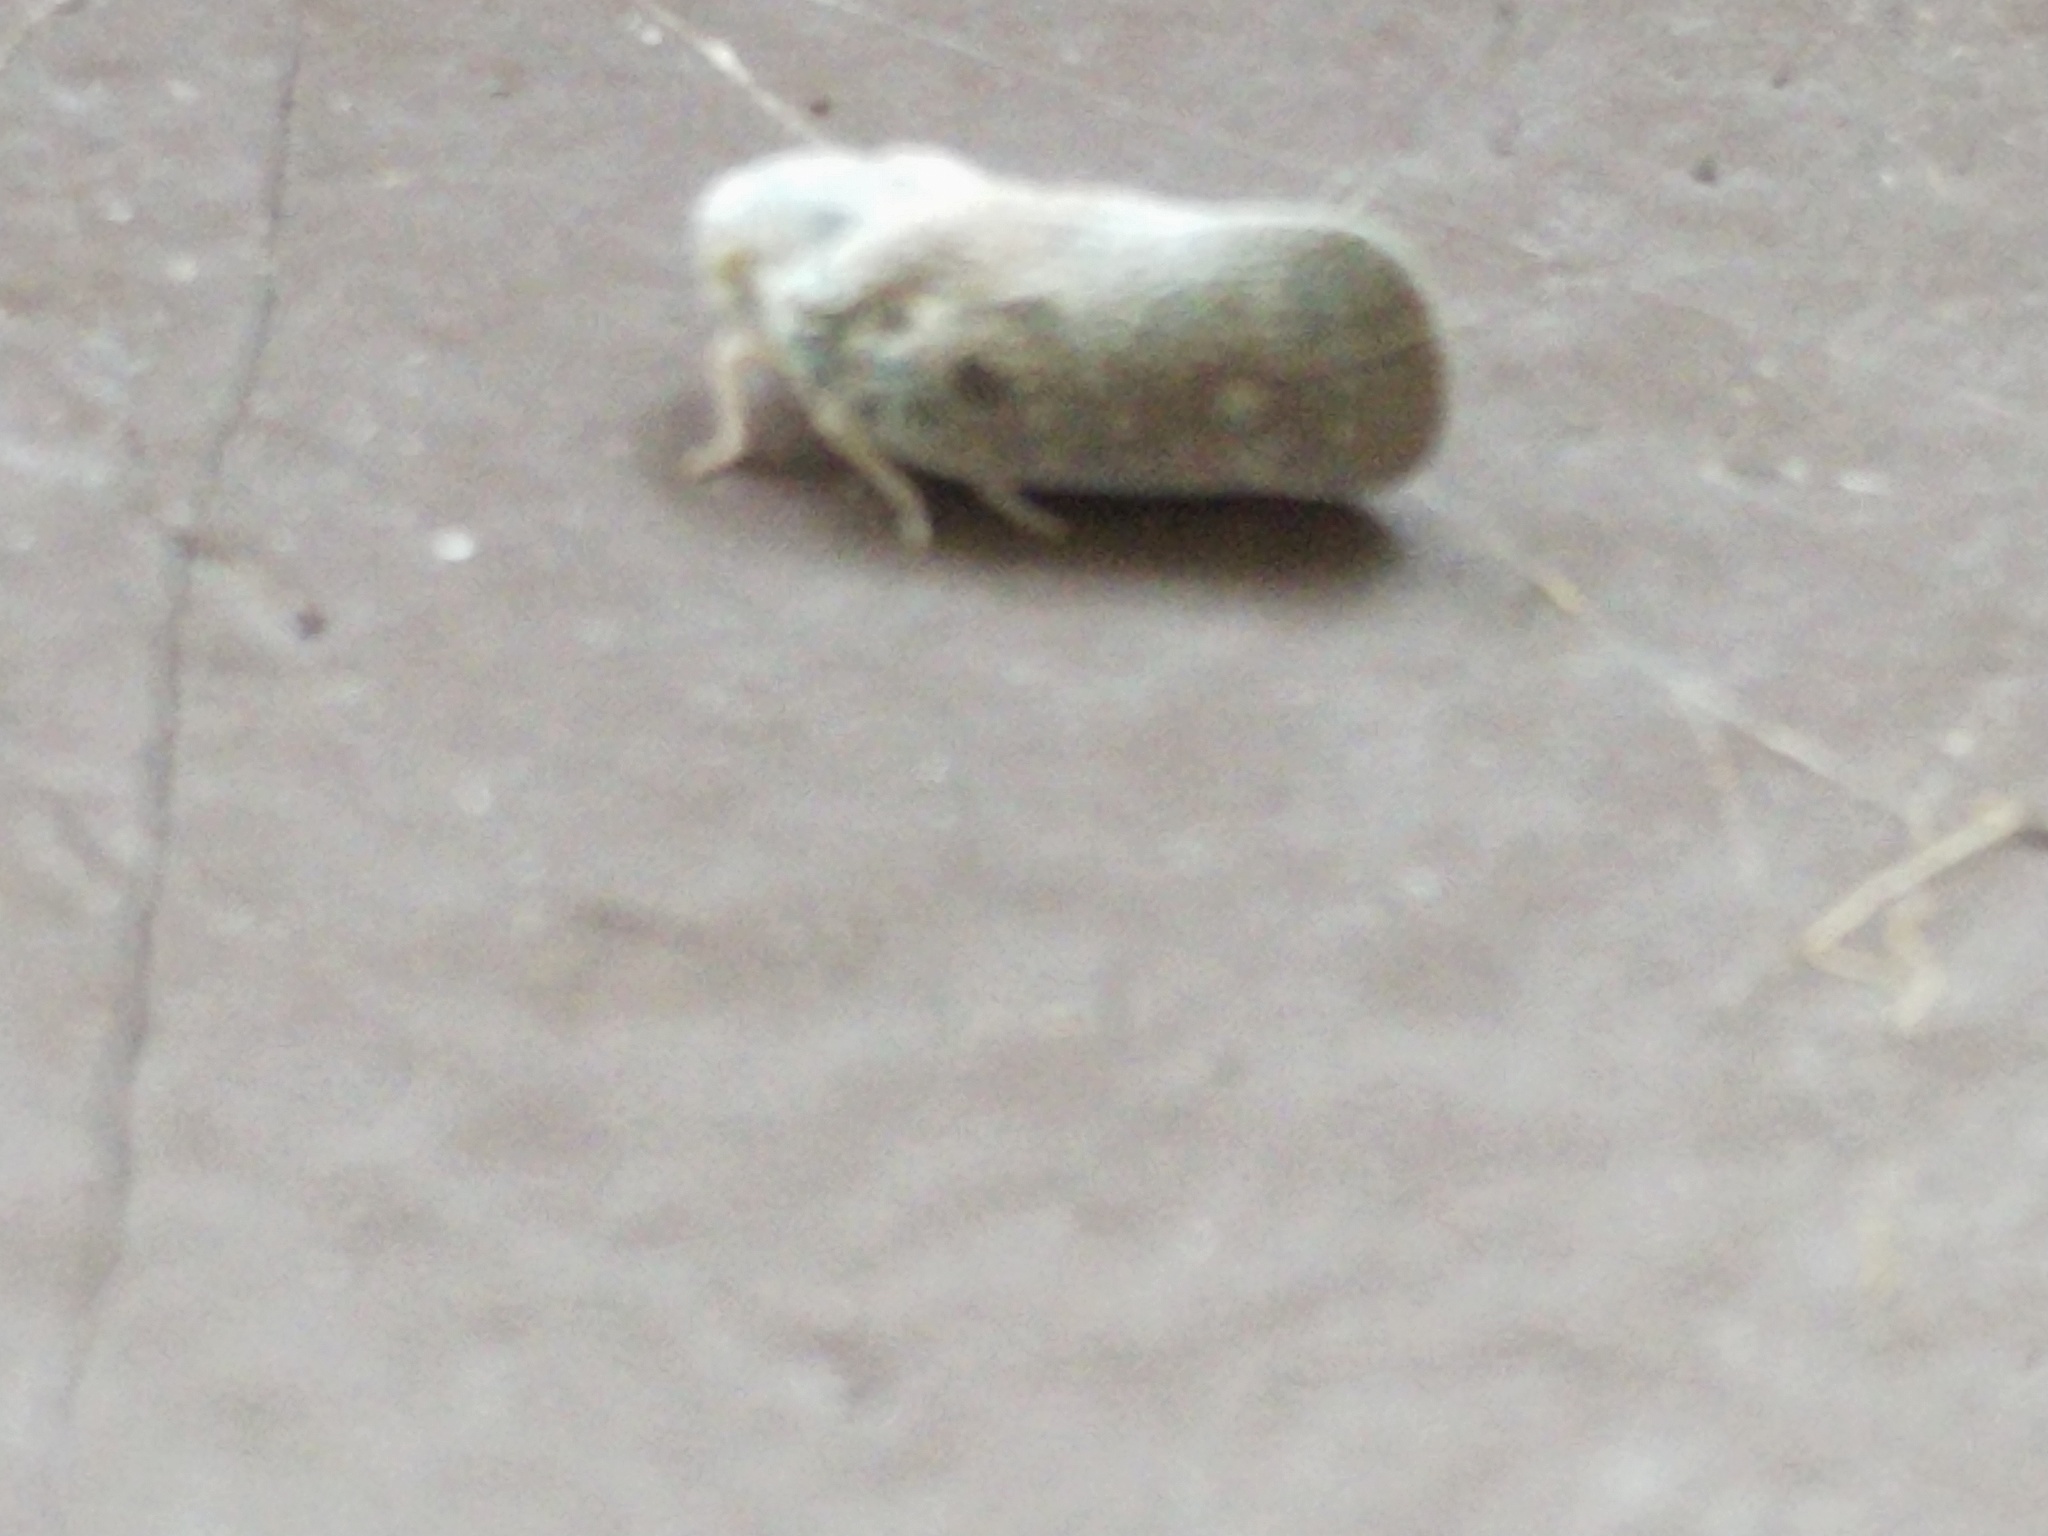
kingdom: Animalia
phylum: Arthropoda
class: Insecta
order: Hemiptera
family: Flatidae
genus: Metcalfa
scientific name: Metcalfa pruinosa
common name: Citrus flatid planthopper
